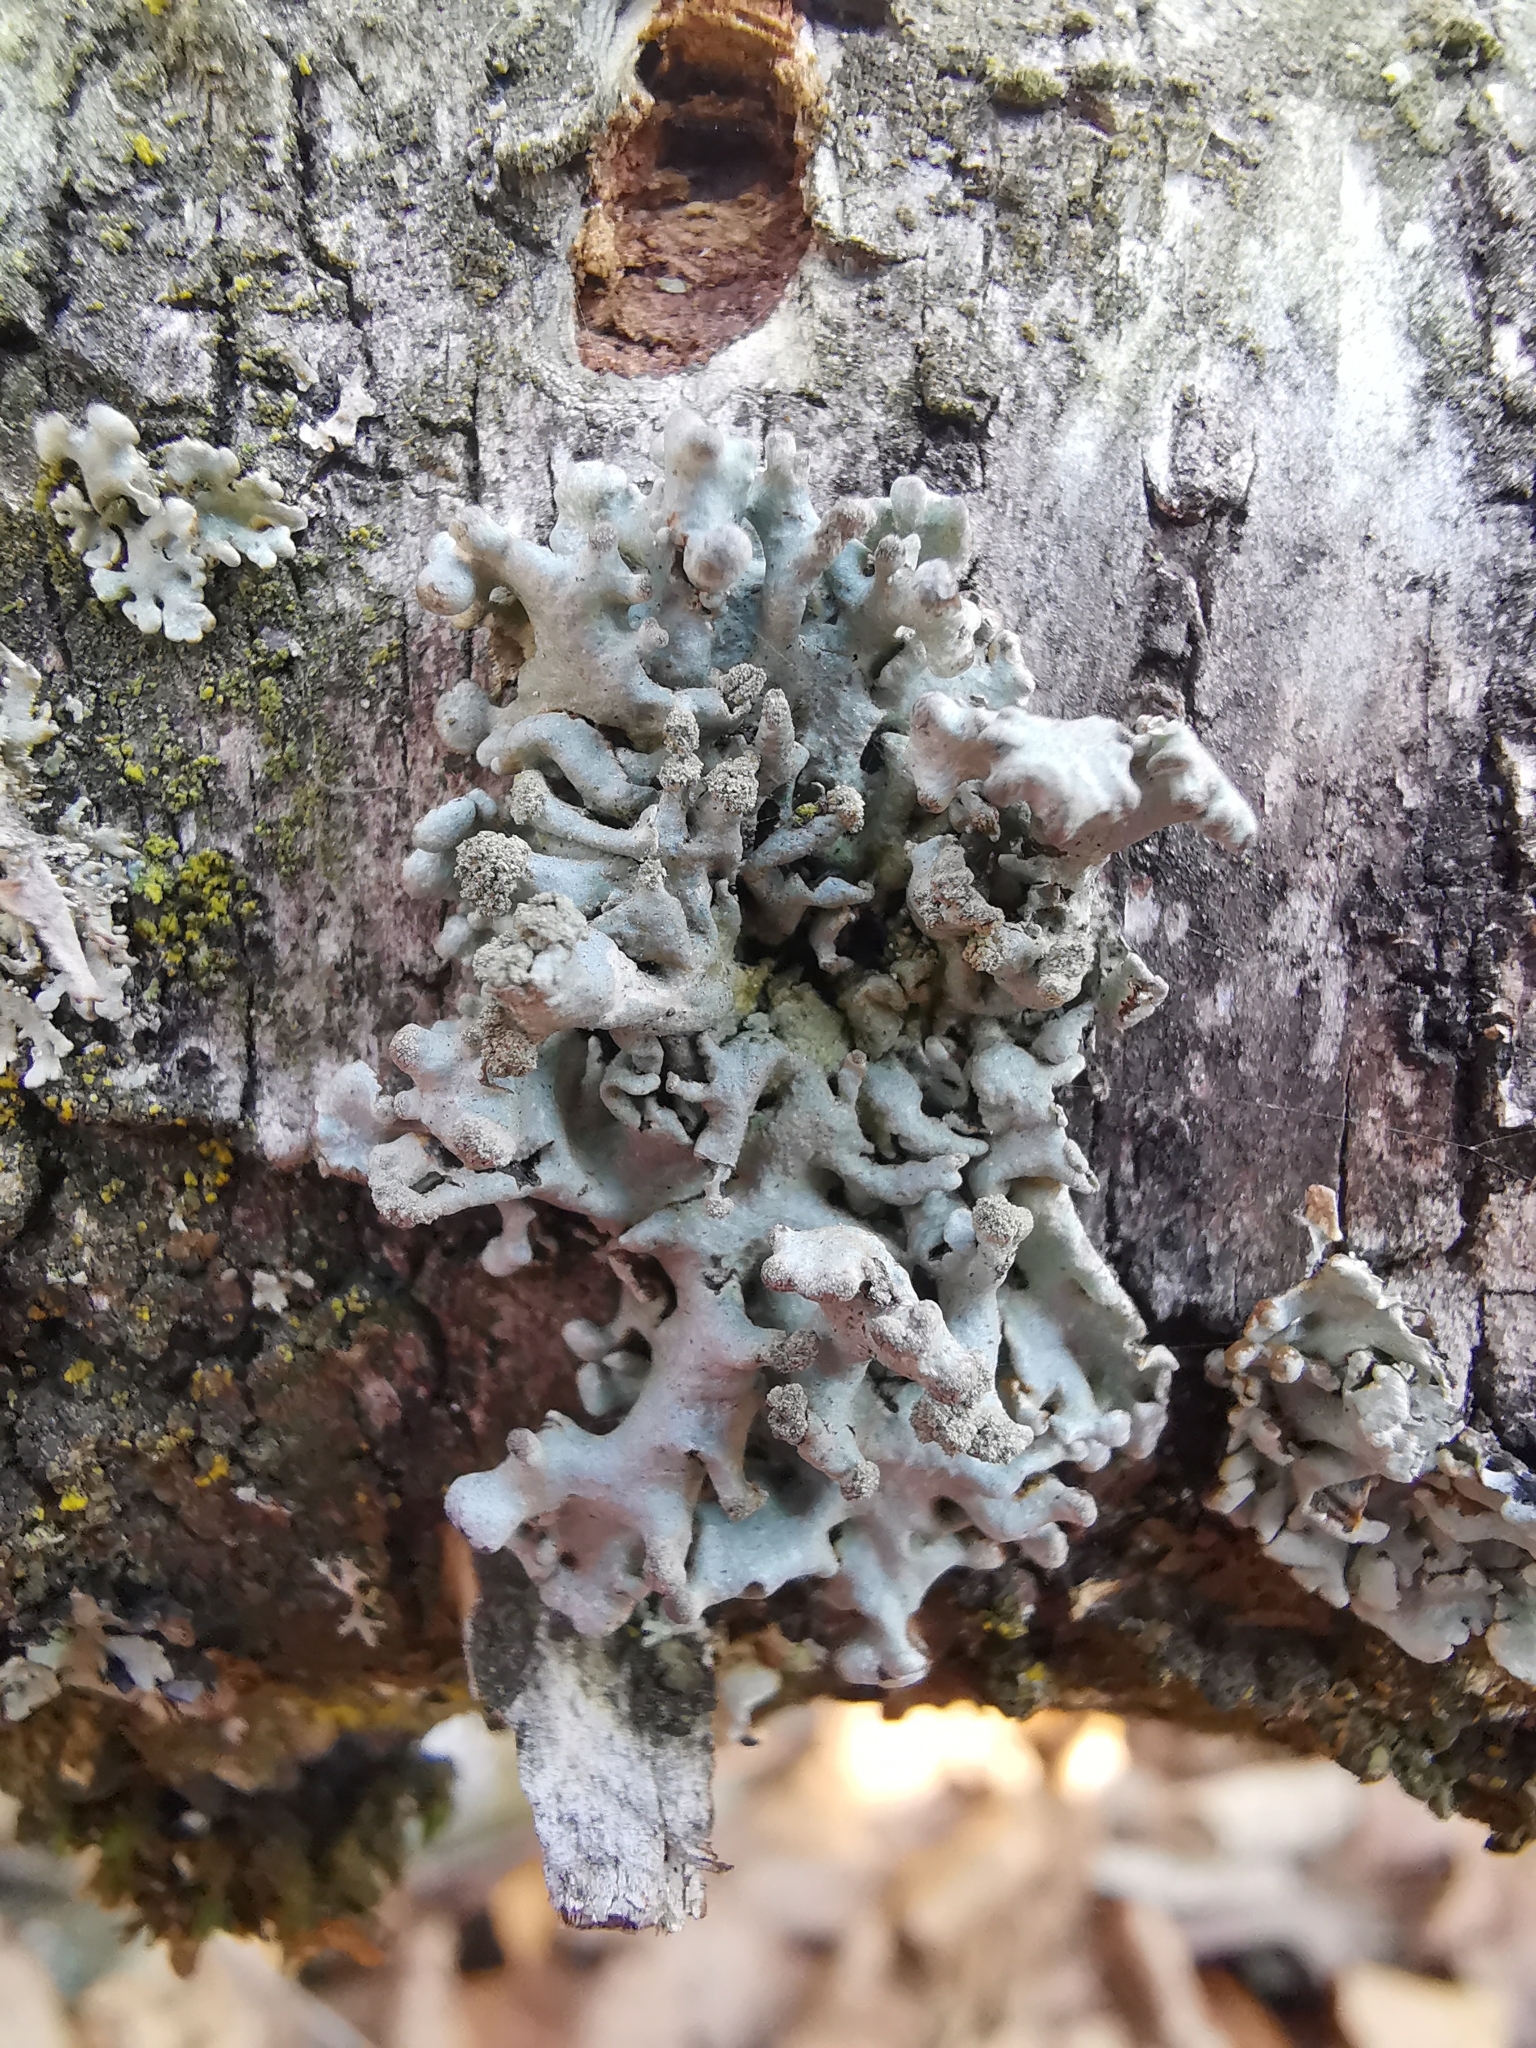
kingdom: Fungi
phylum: Ascomycota
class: Lecanoromycetes
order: Lecanorales
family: Parmeliaceae
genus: Hypogymnia
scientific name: Hypogymnia tubulosa
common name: Powder-headed tube lichen
